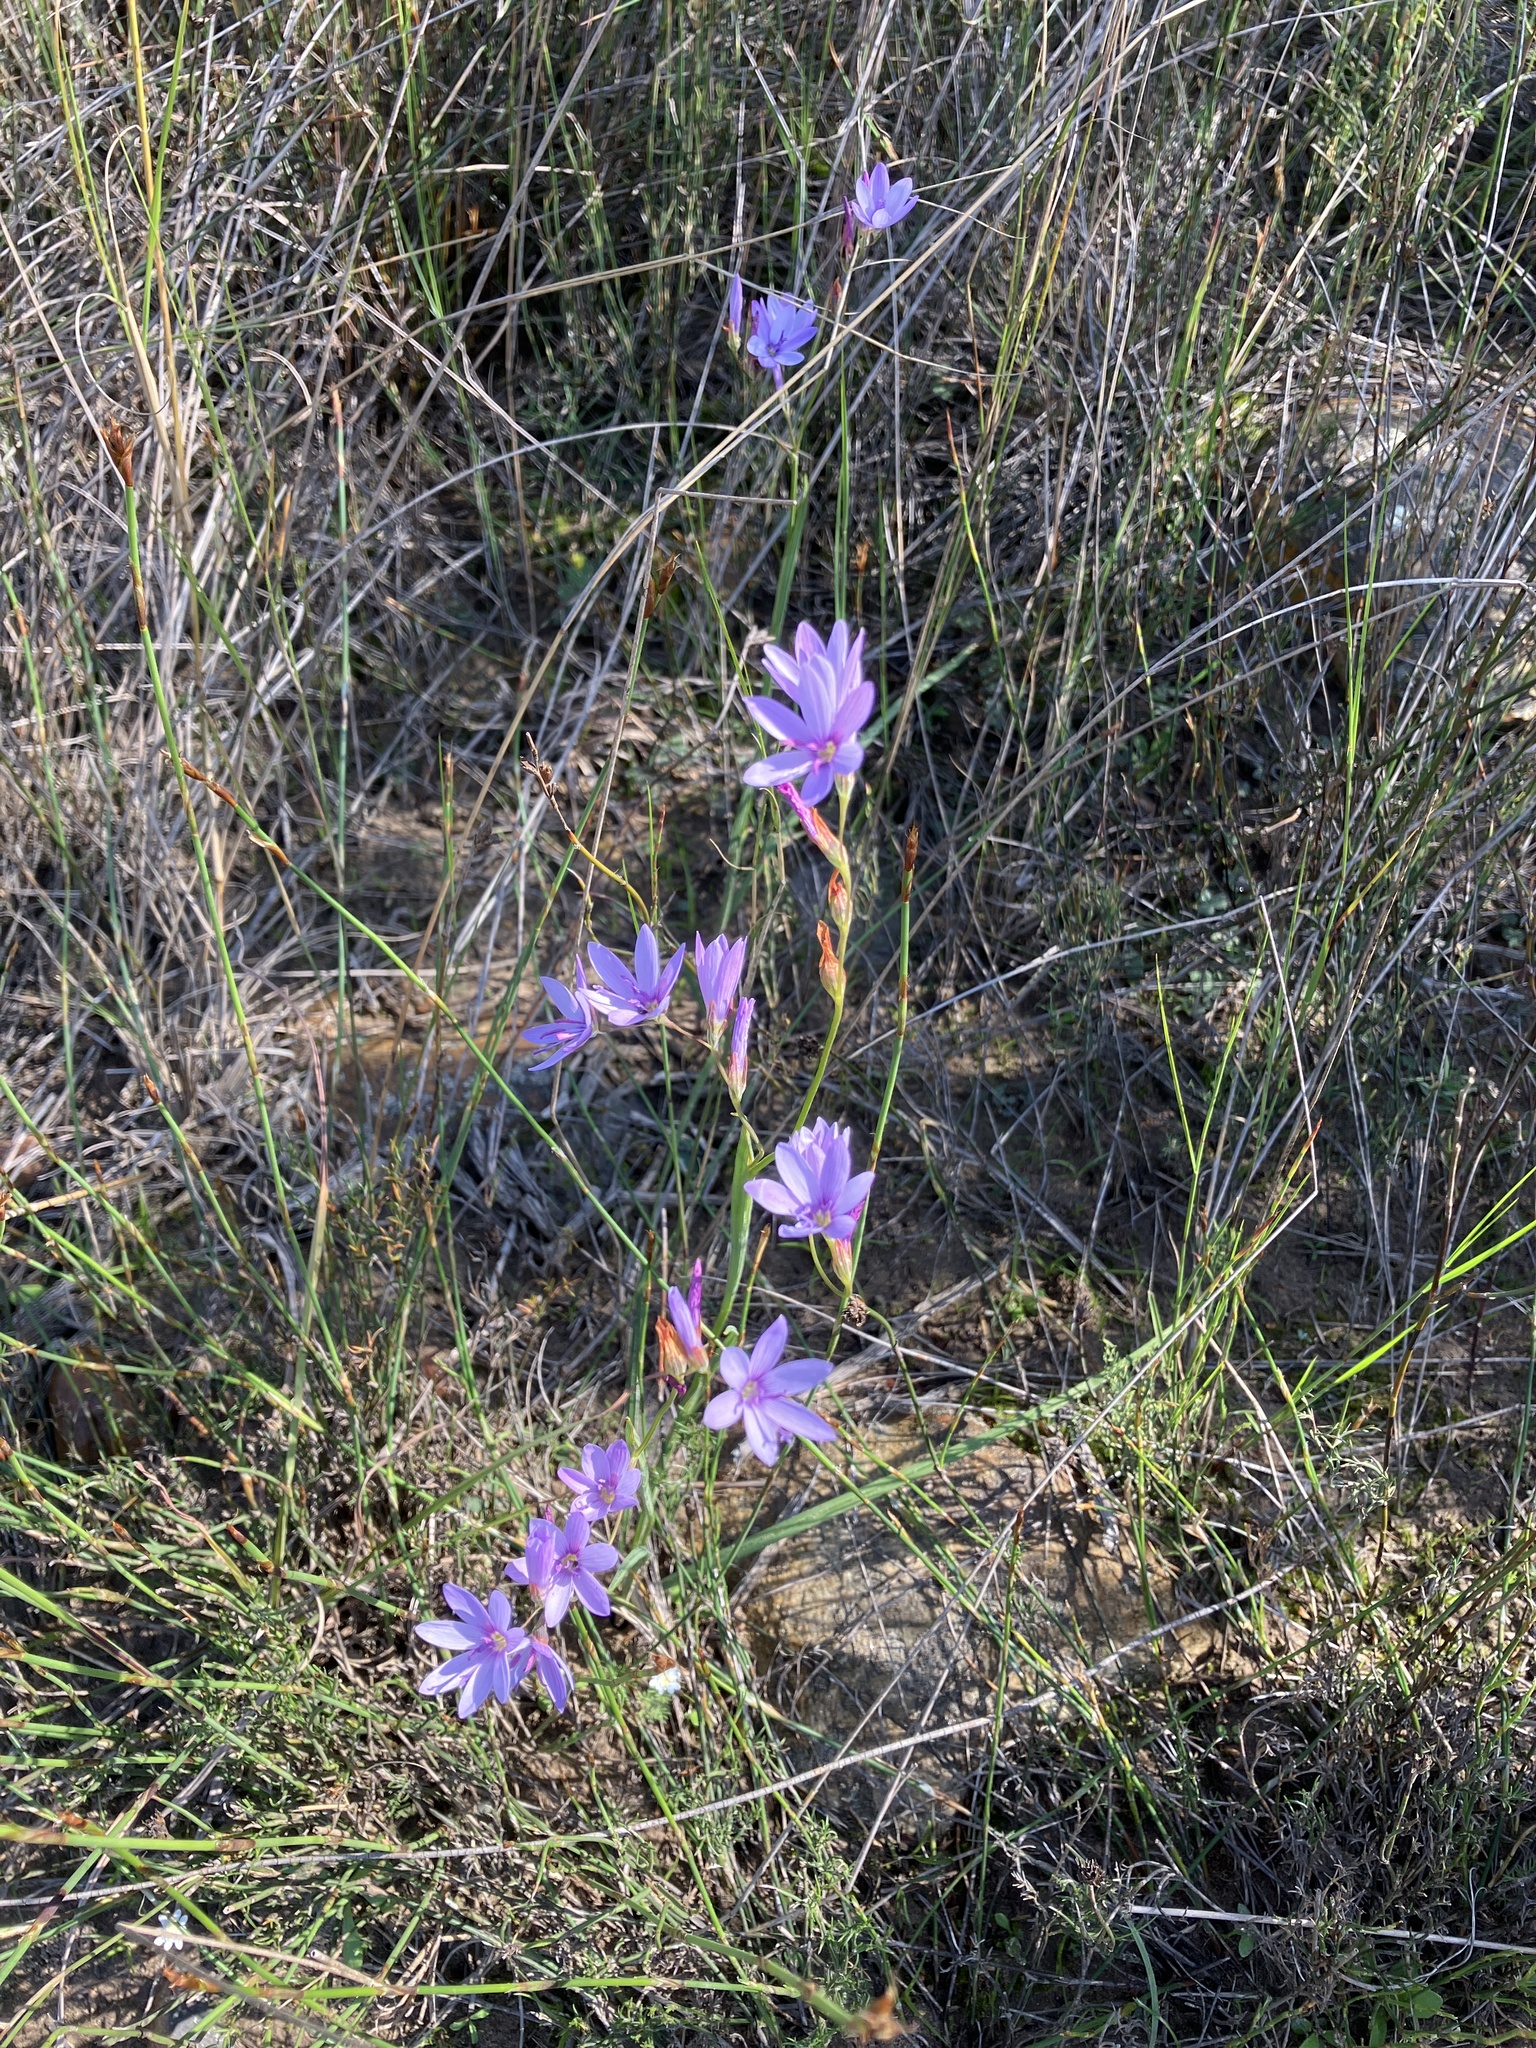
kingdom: Plantae
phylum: Tracheophyta
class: Liliopsida
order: Asparagales
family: Iridaceae
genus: Geissorhiza
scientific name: Geissorhiza heterostyla
